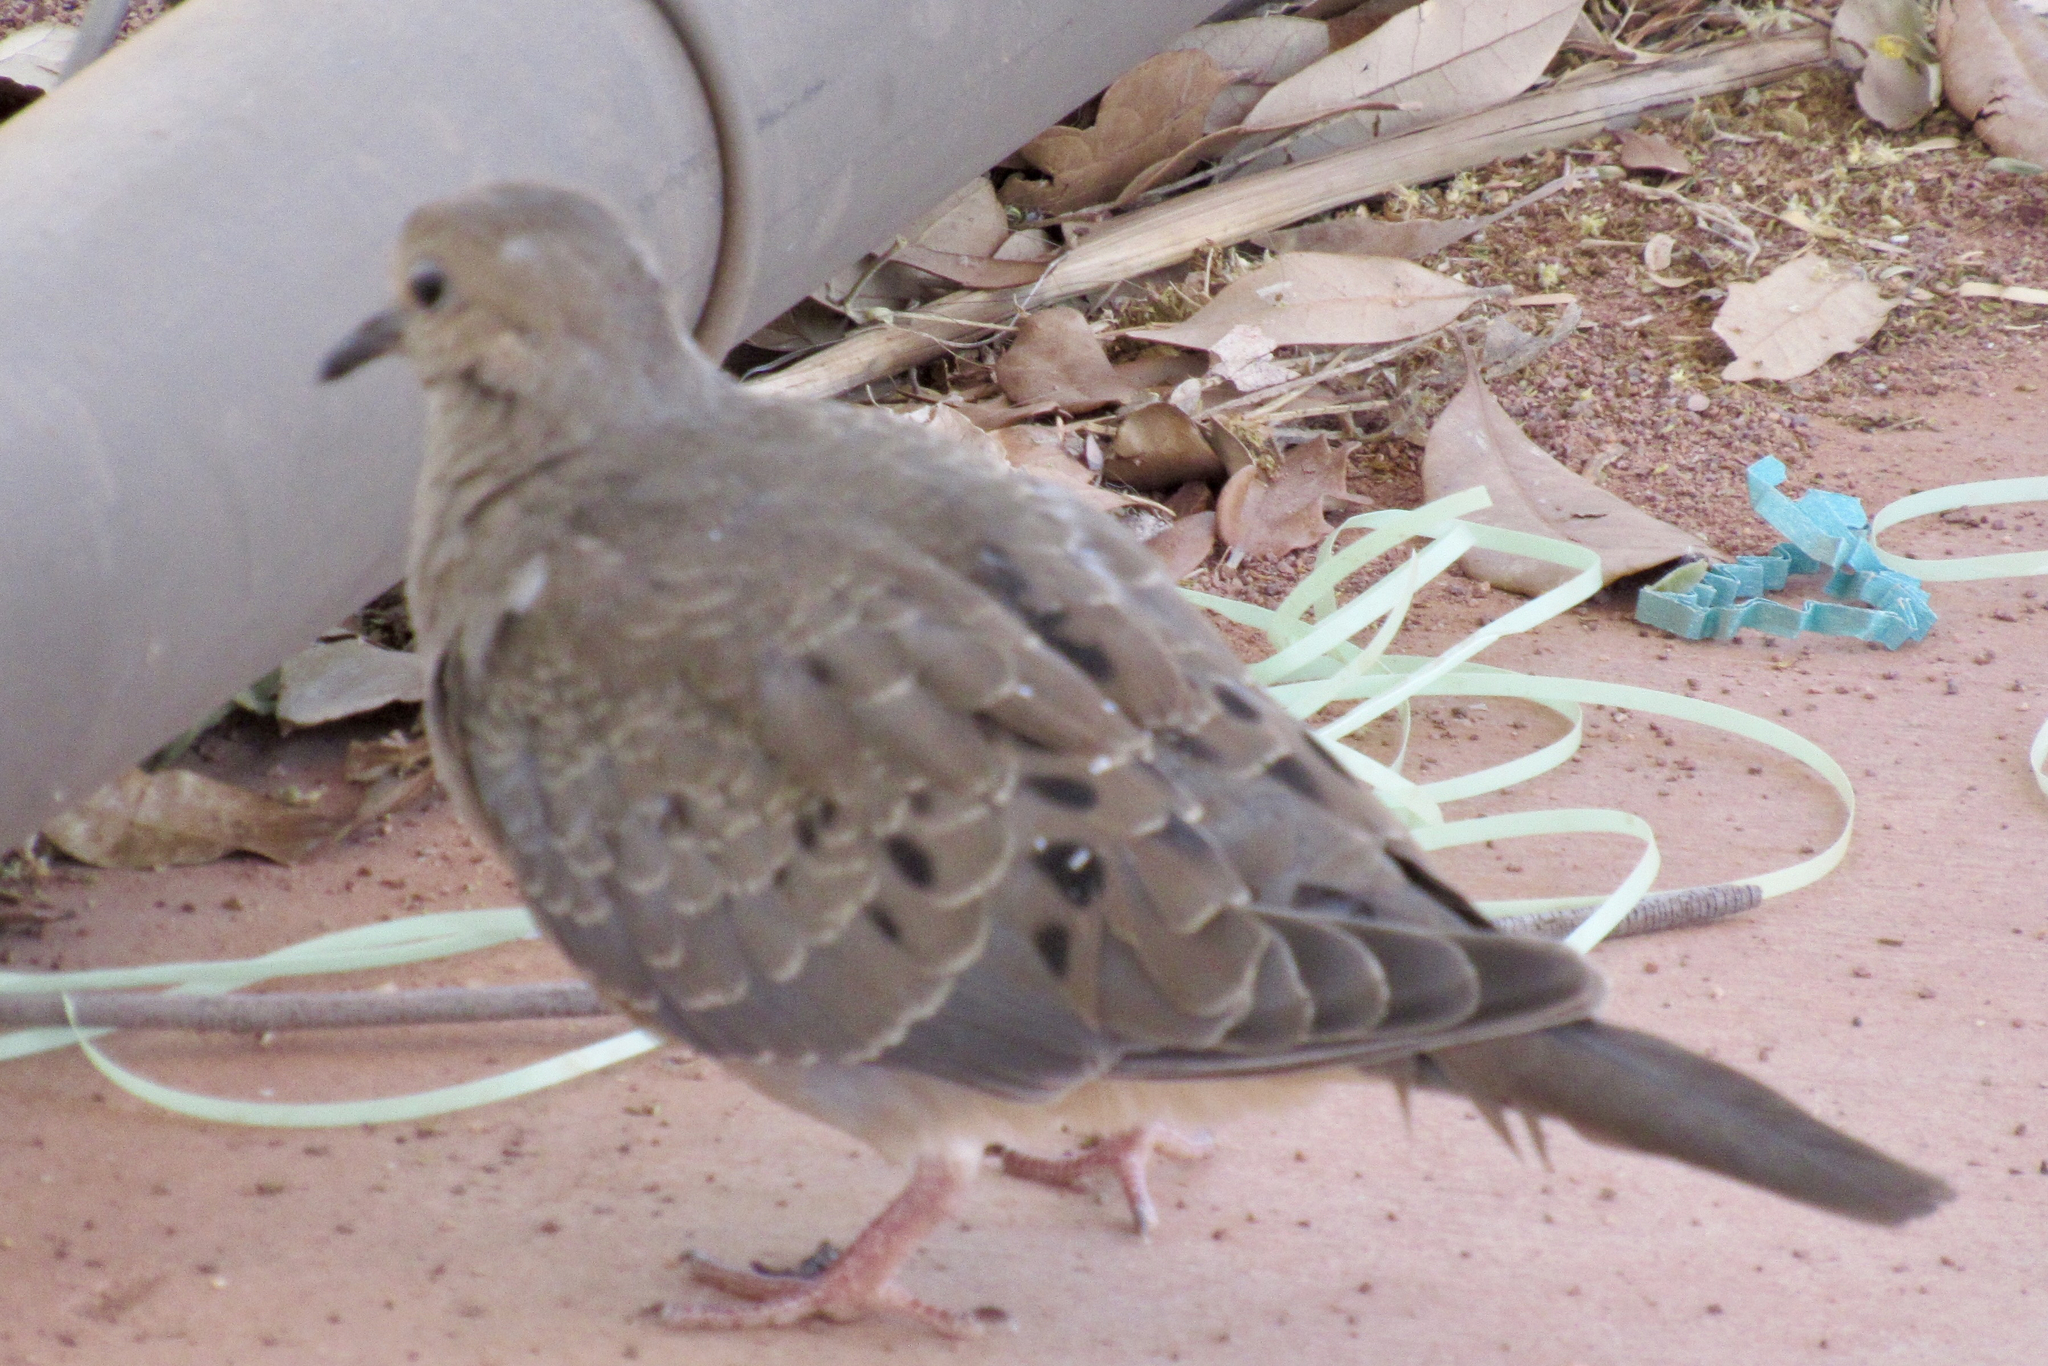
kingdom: Animalia
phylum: Chordata
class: Aves
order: Columbiformes
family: Columbidae
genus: Zenaida
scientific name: Zenaida macroura
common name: Mourning dove
